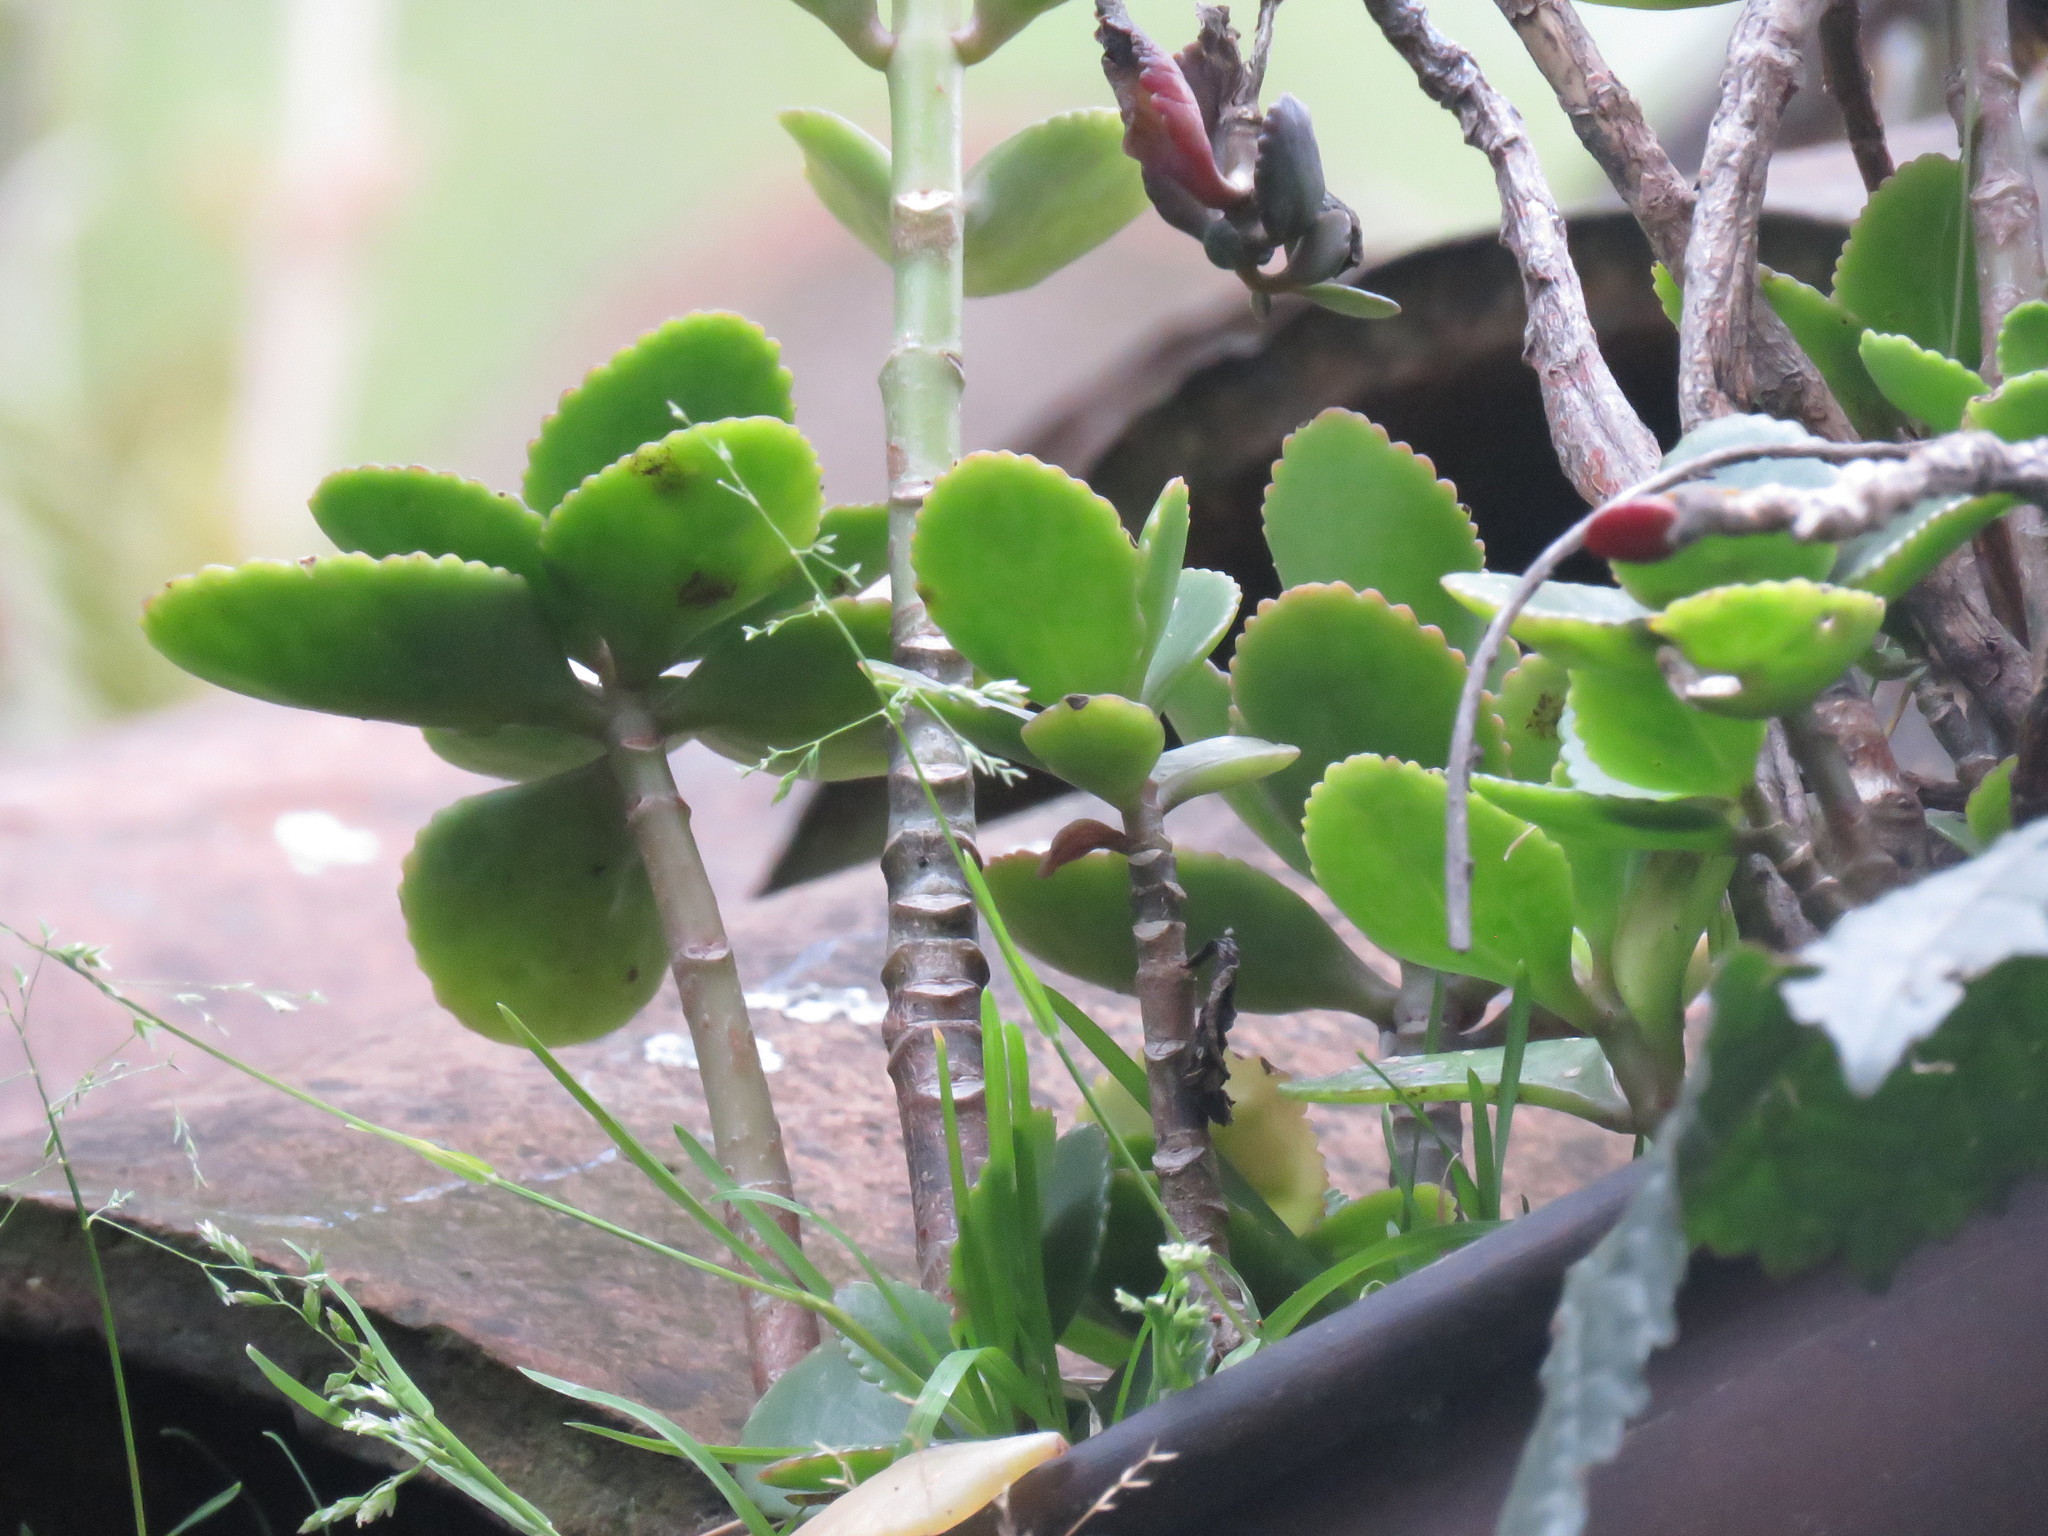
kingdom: Plantae
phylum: Tracheophyta
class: Magnoliopsida
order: Saxifragales
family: Crassulaceae
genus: Kalanchoe
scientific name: Kalanchoe densiflora
